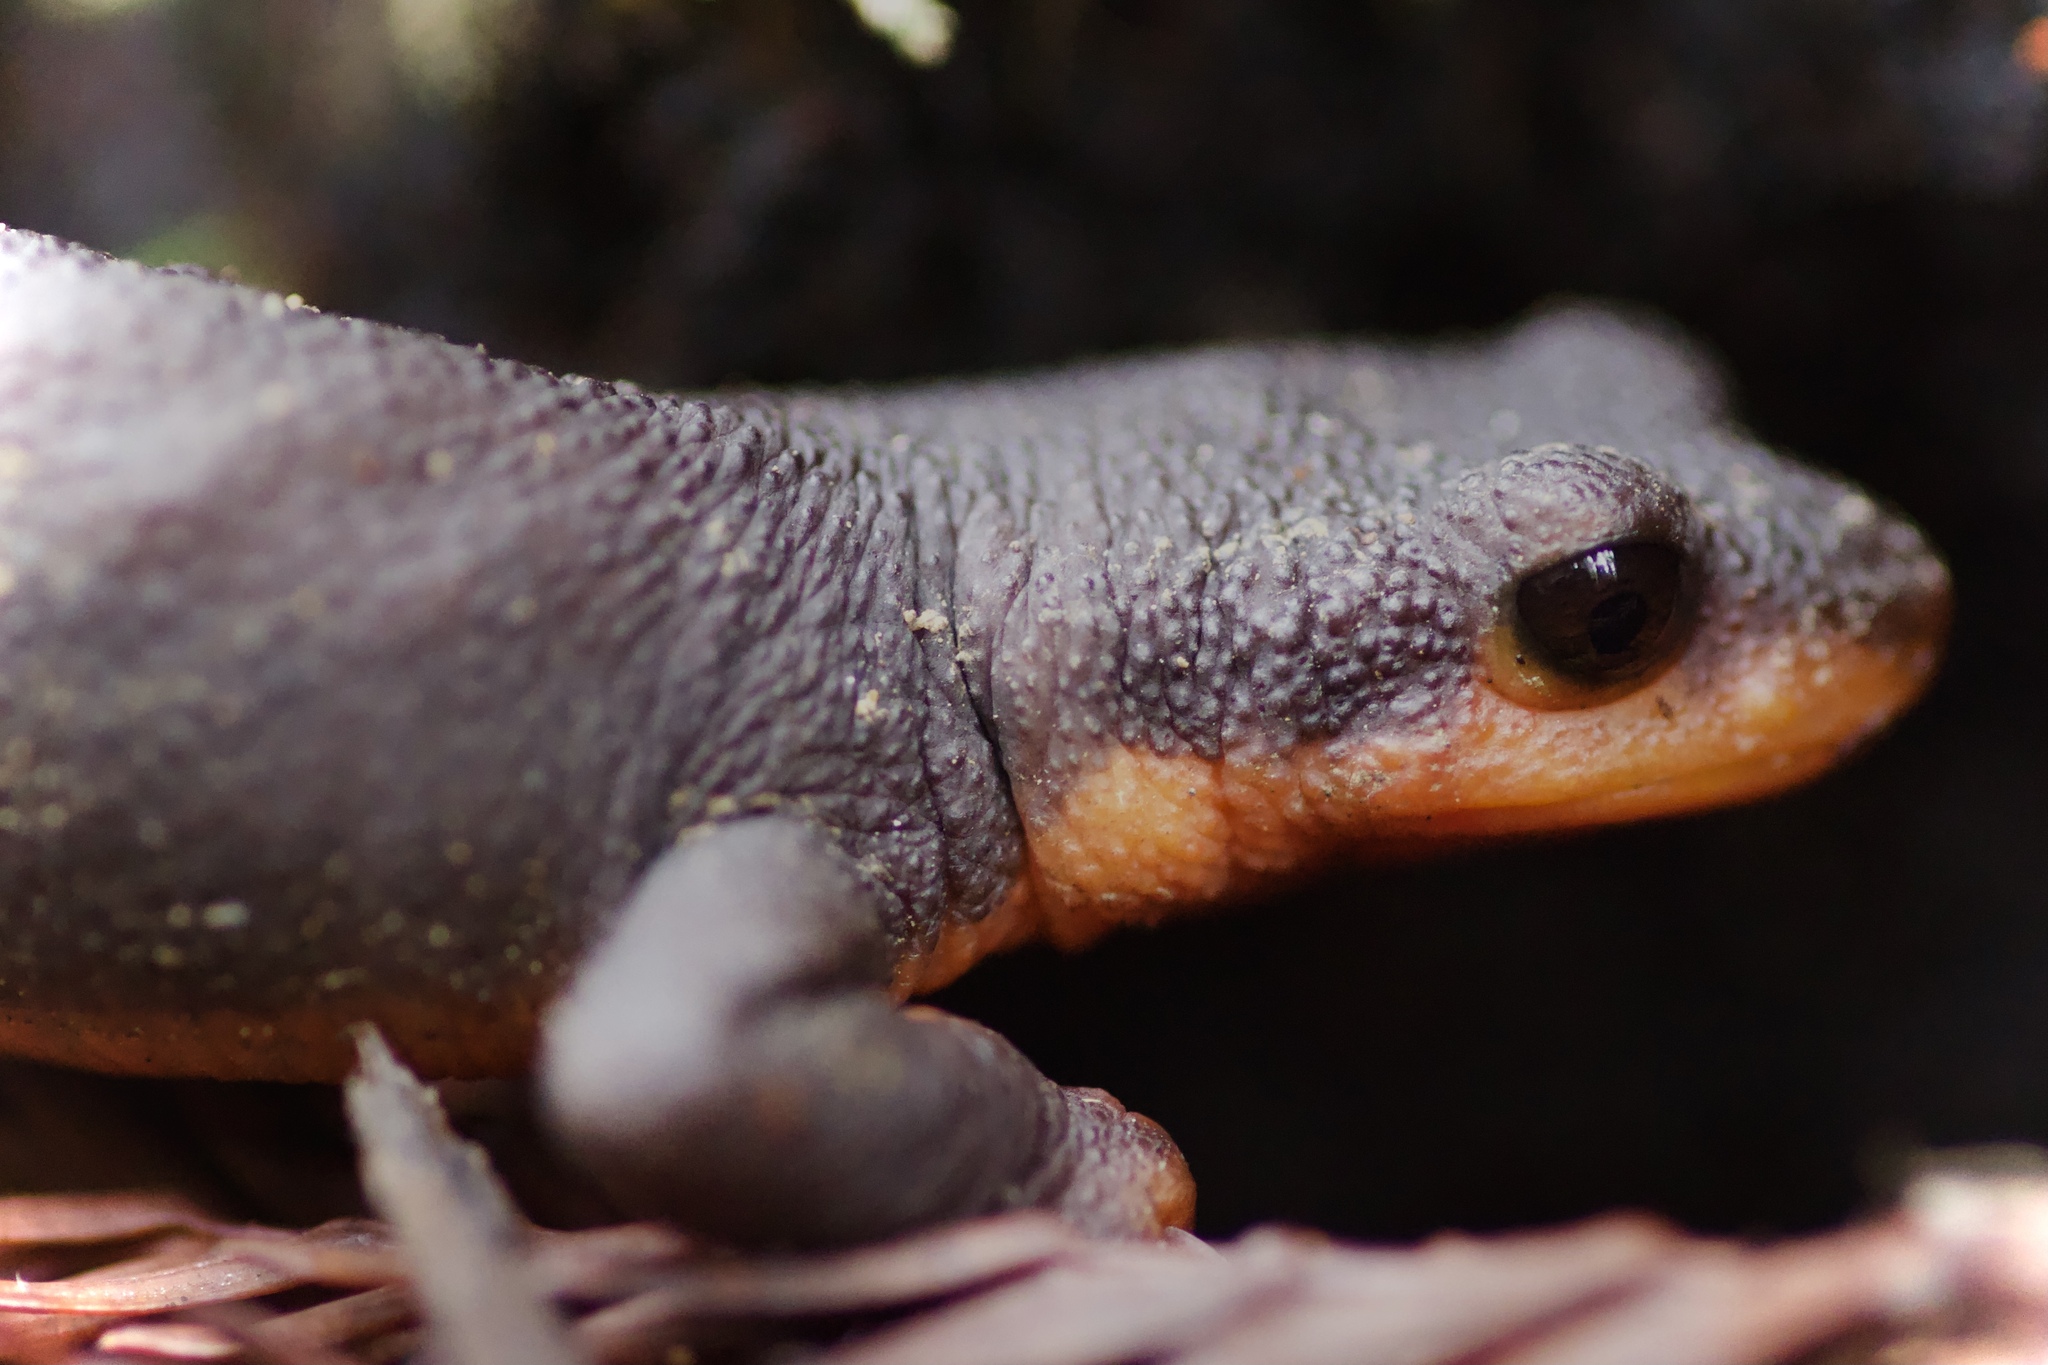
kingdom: Animalia
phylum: Chordata
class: Amphibia
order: Caudata
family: Salamandridae
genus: Taricha
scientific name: Taricha rivularis
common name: Red-bellied newt
